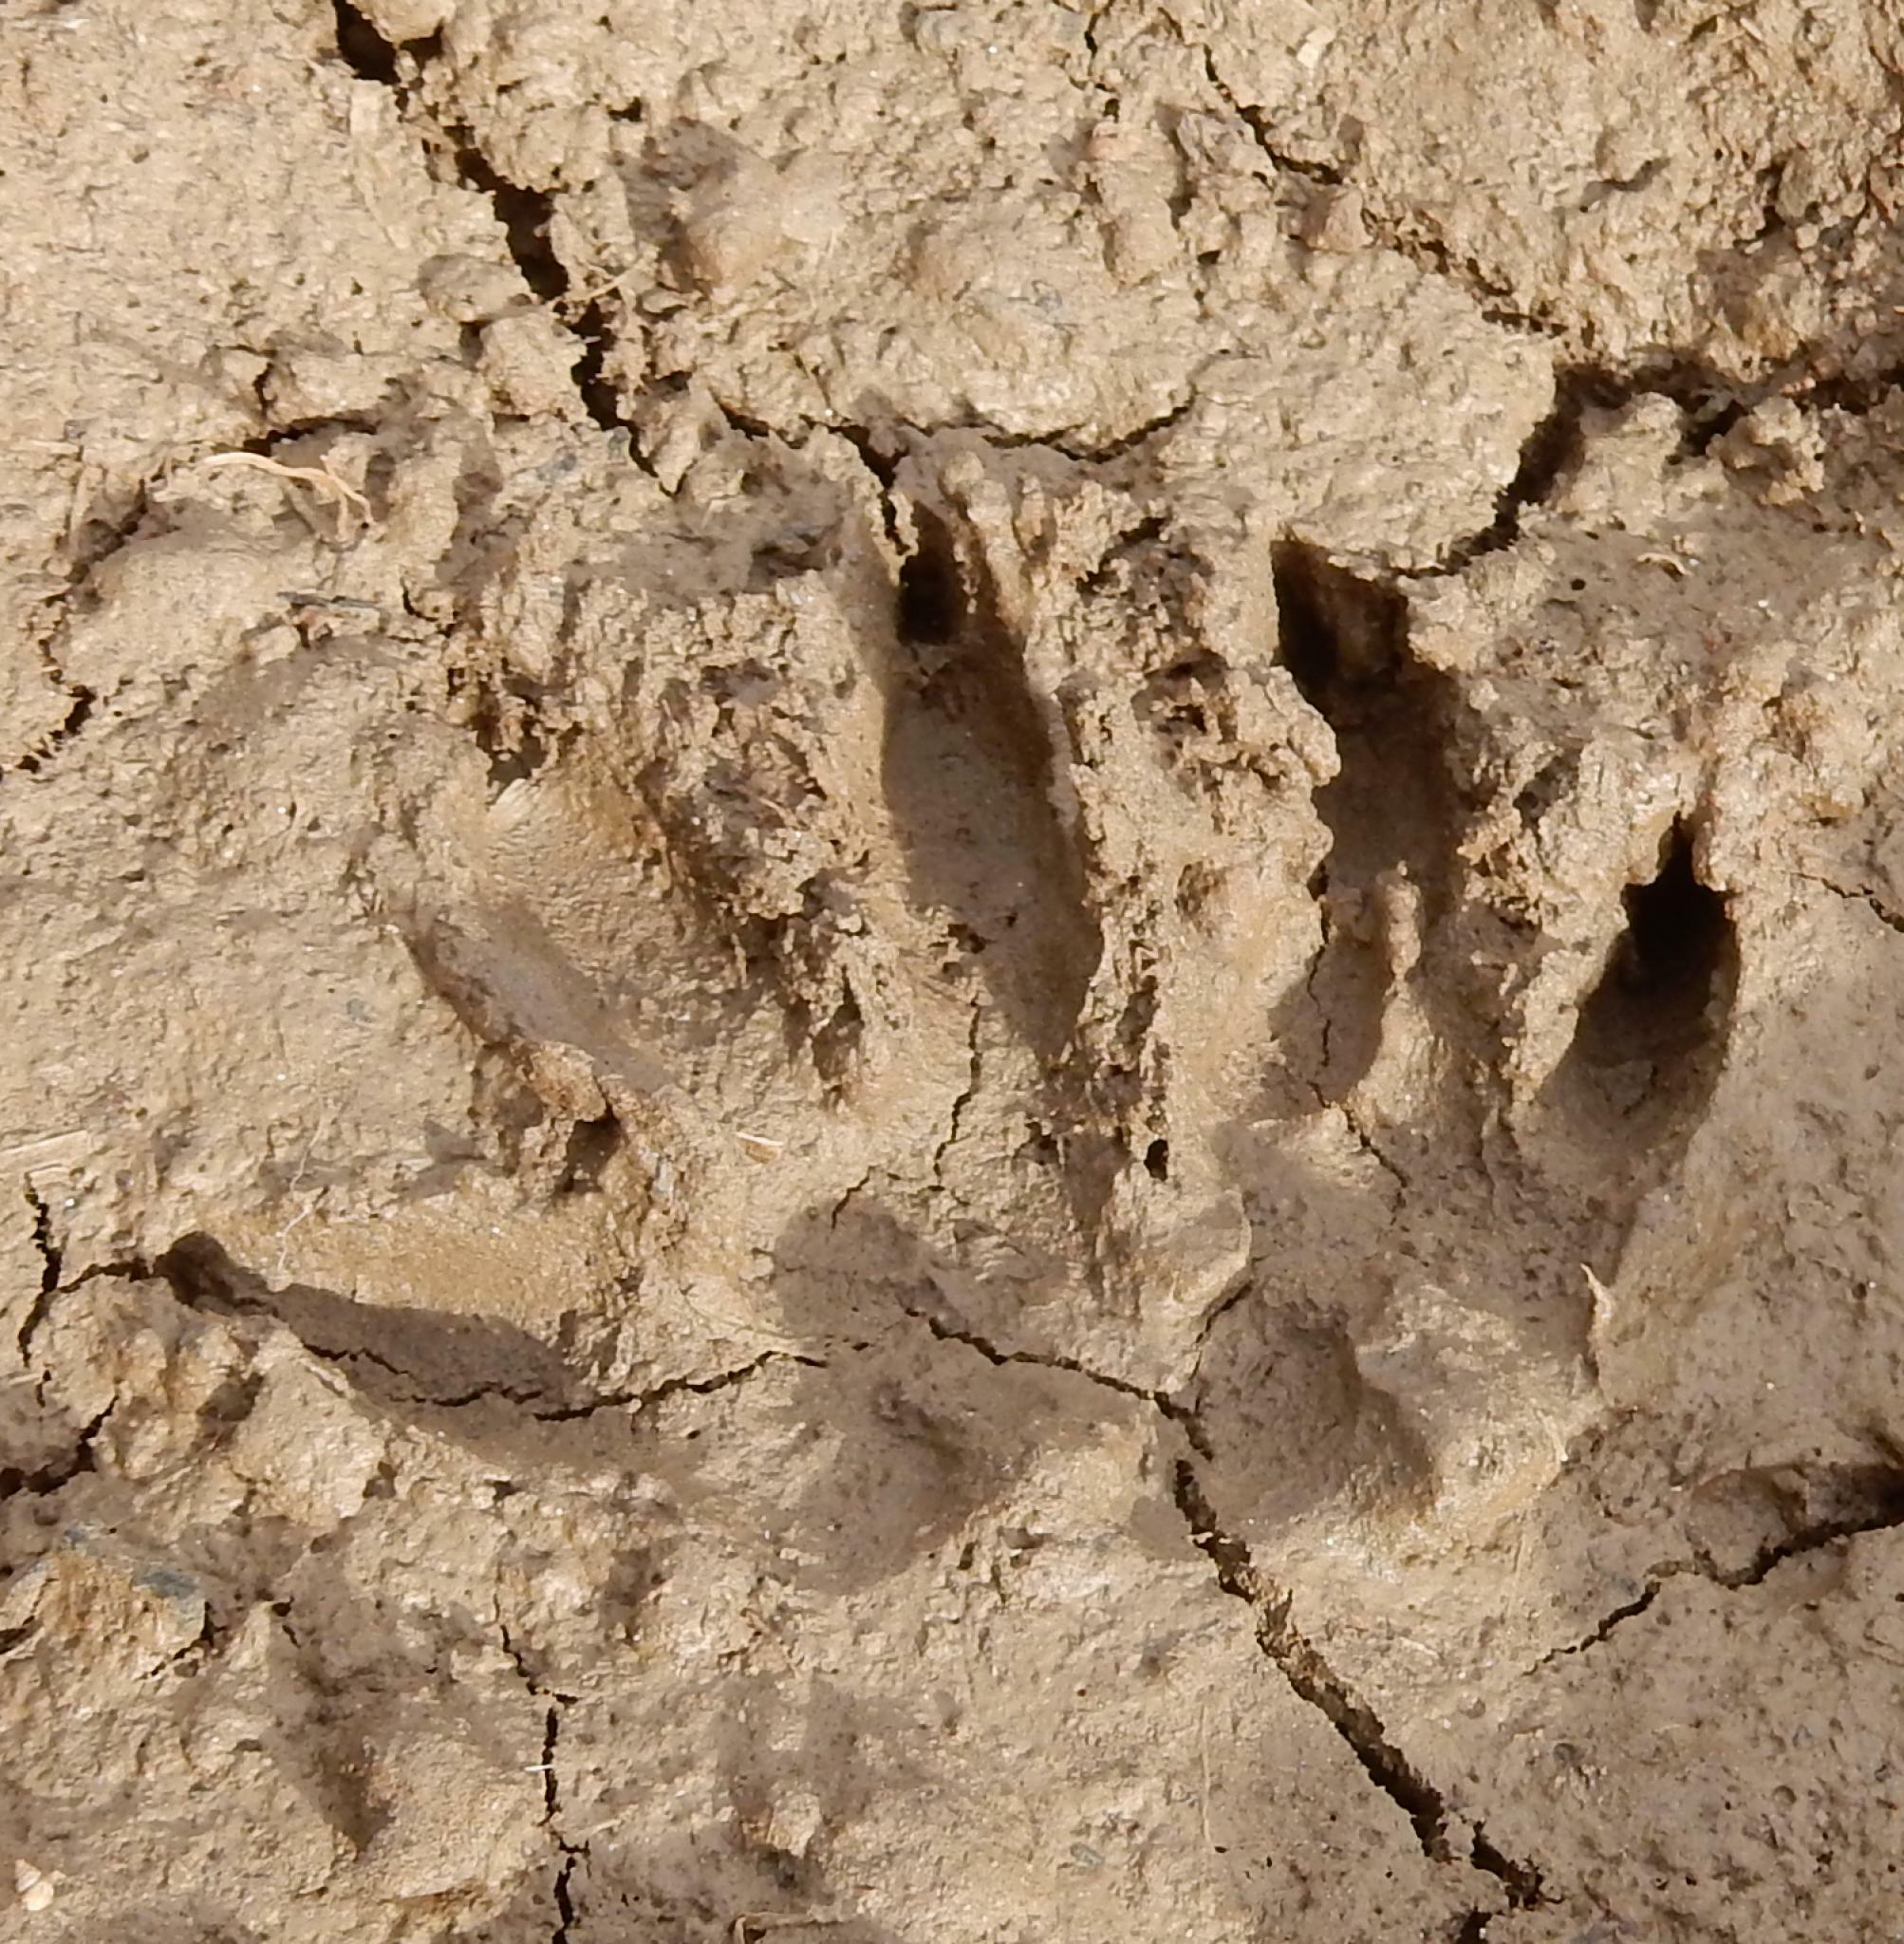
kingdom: Animalia
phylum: Chordata
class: Mammalia
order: Carnivora
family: Herpestidae
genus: Atilax
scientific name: Atilax paludinosus
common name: Marsh mongoose
